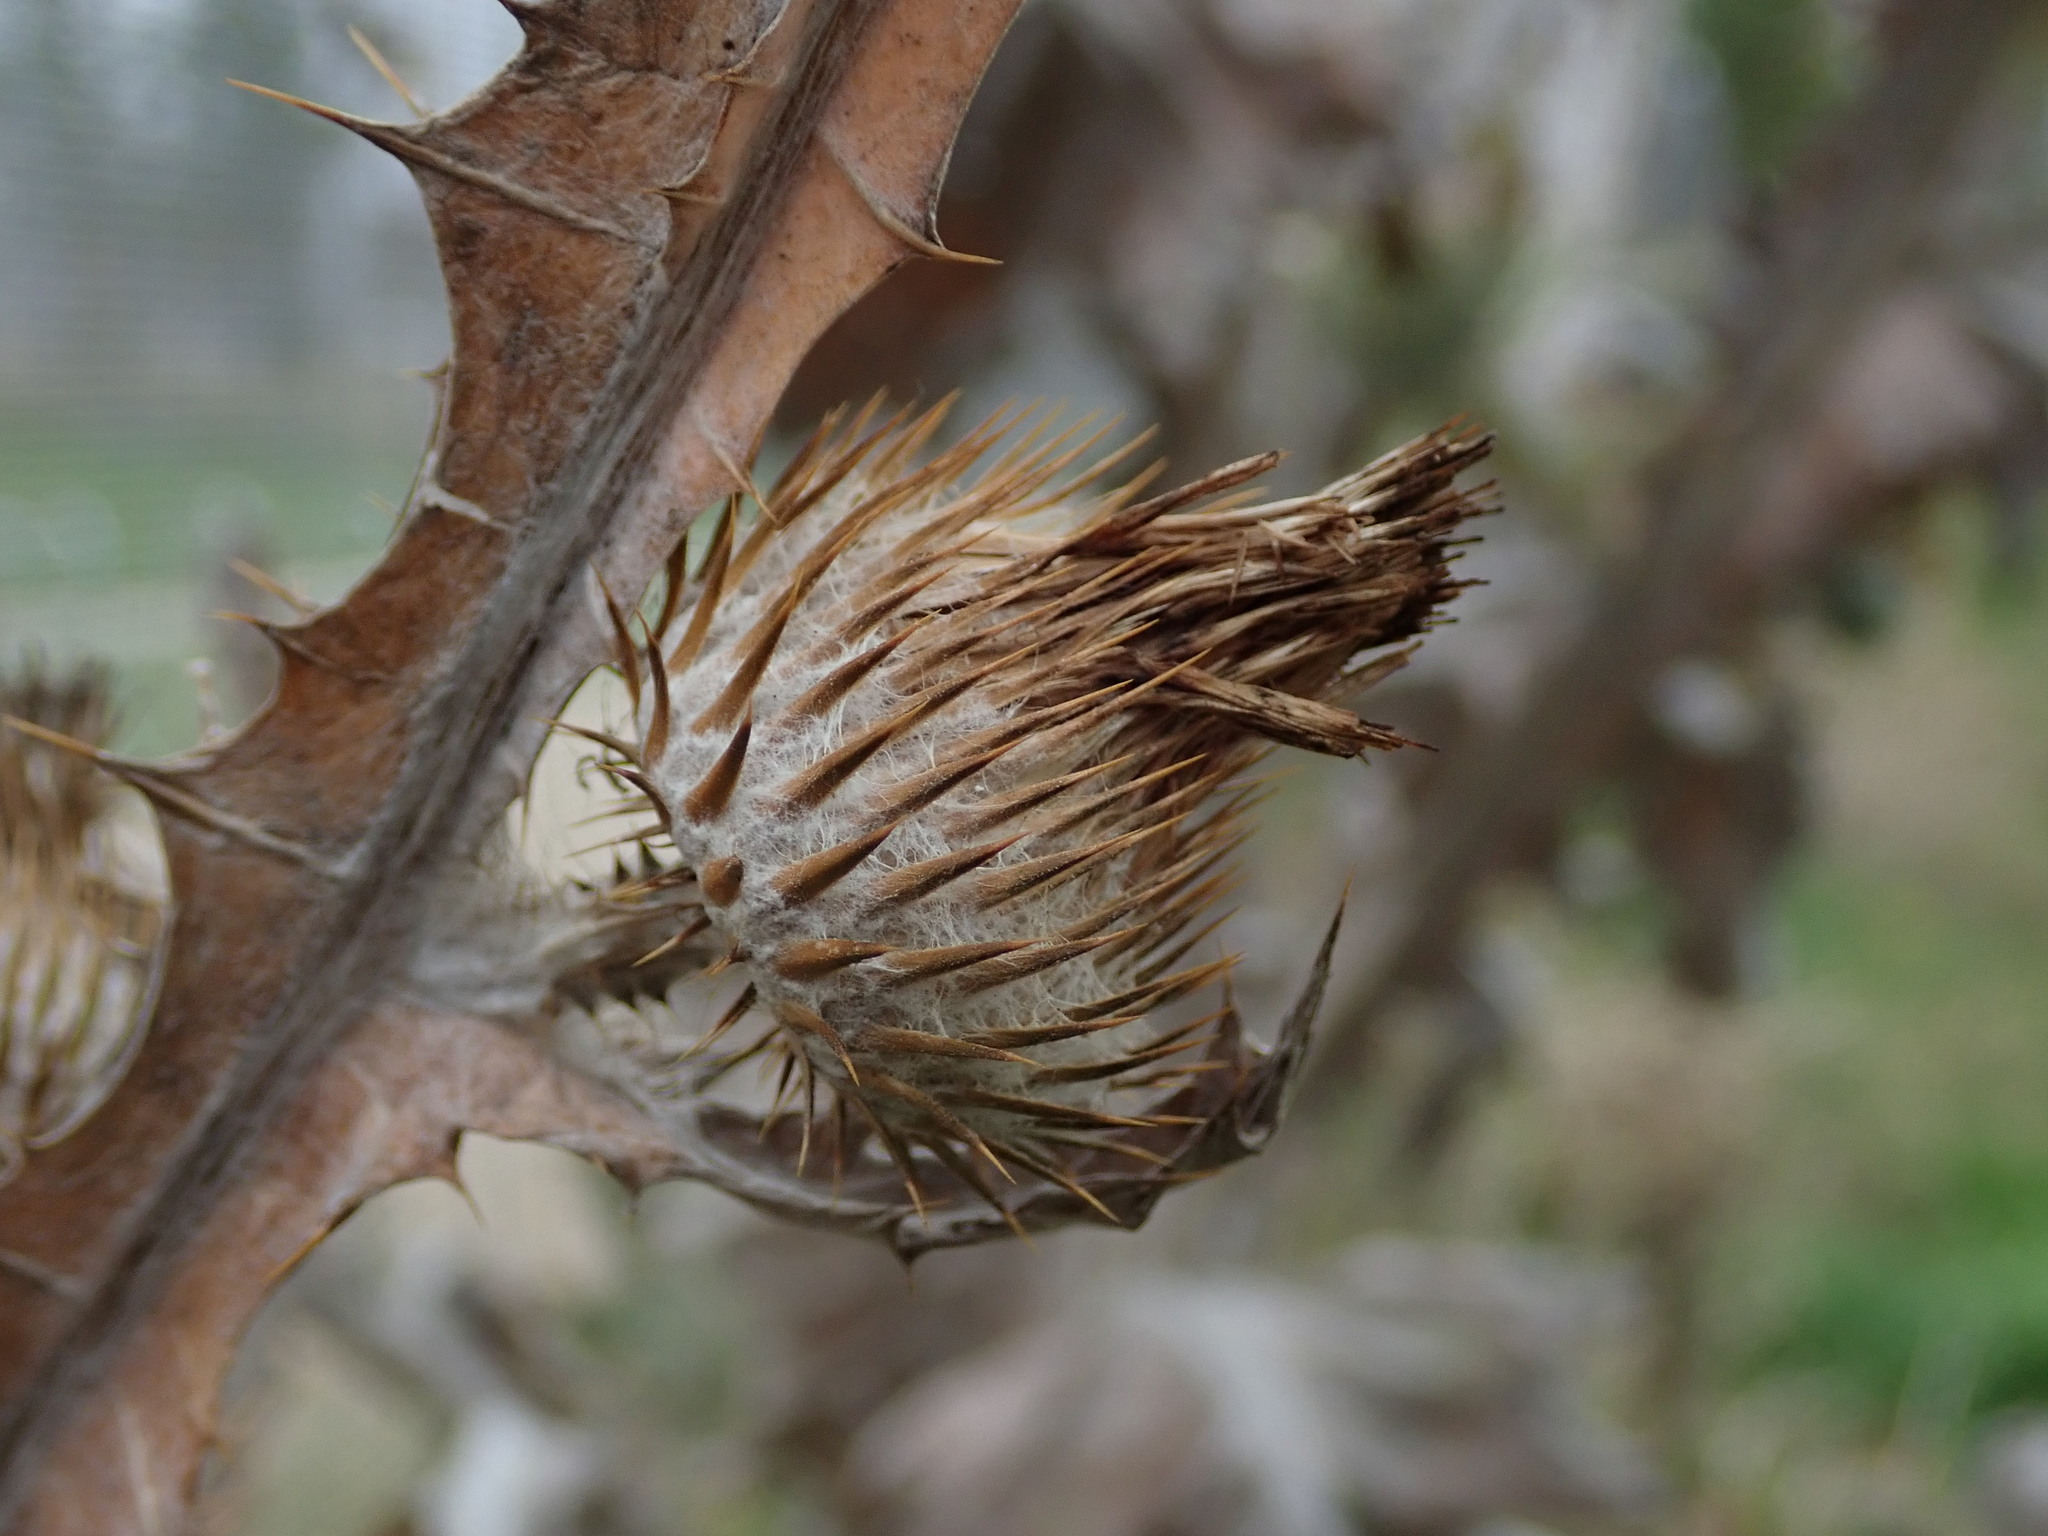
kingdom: Plantae
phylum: Tracheophyta
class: Magnoliopsida
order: Asterales
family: Asteraceae
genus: Onopordum
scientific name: Onopordum acanthium
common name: Scotch thistle
